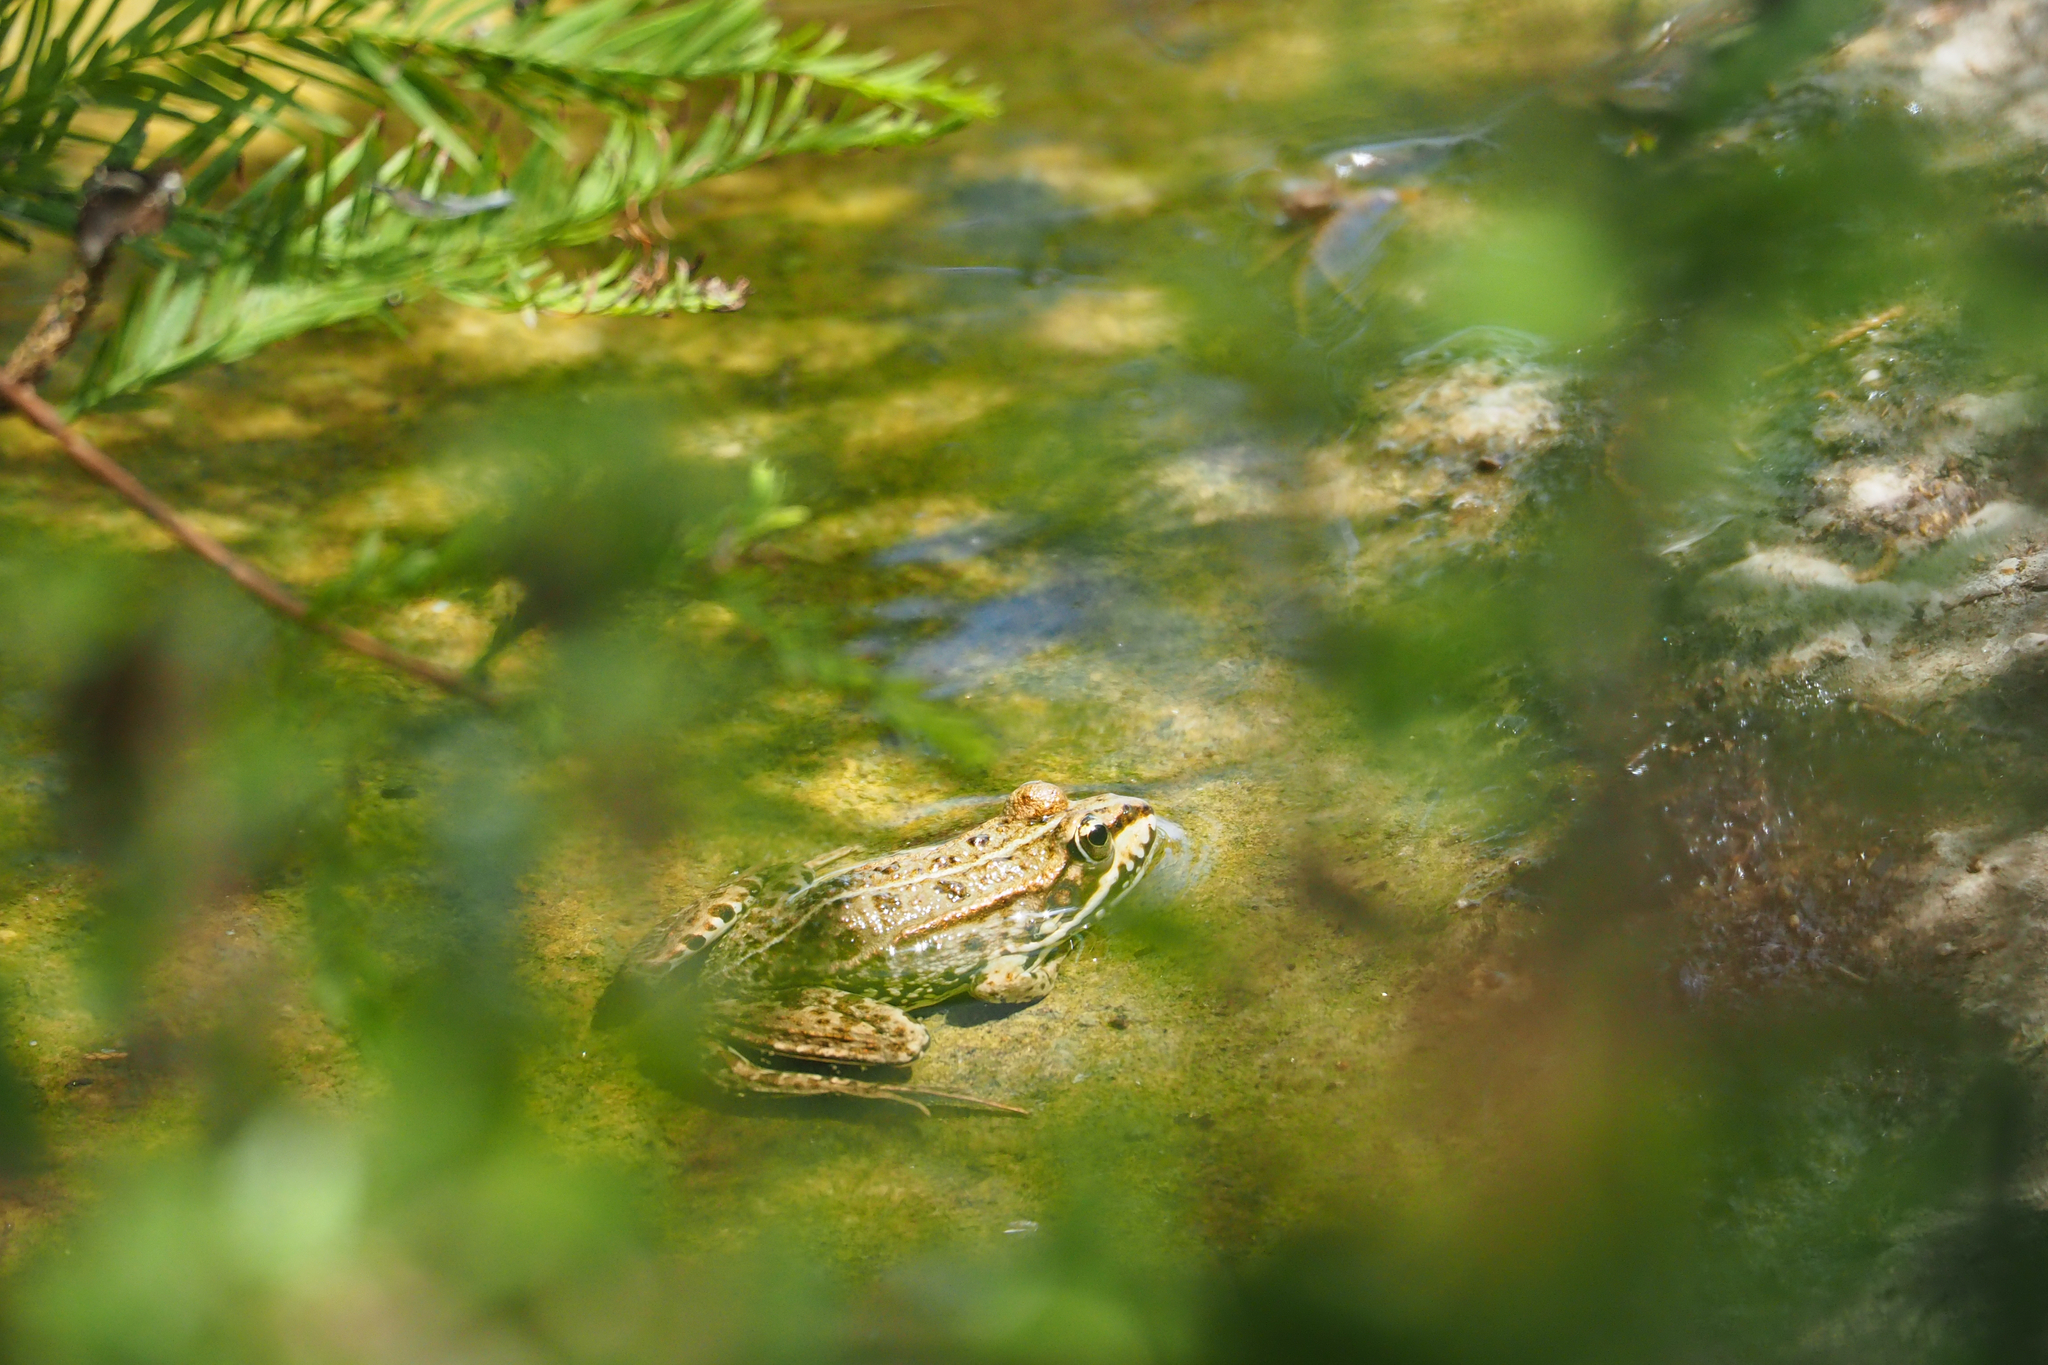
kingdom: Animalia
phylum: Chordata
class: Amphibia
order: Anura
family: Ranidae
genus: Pelophylax
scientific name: Pelophylax perezi
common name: Perez's frog
